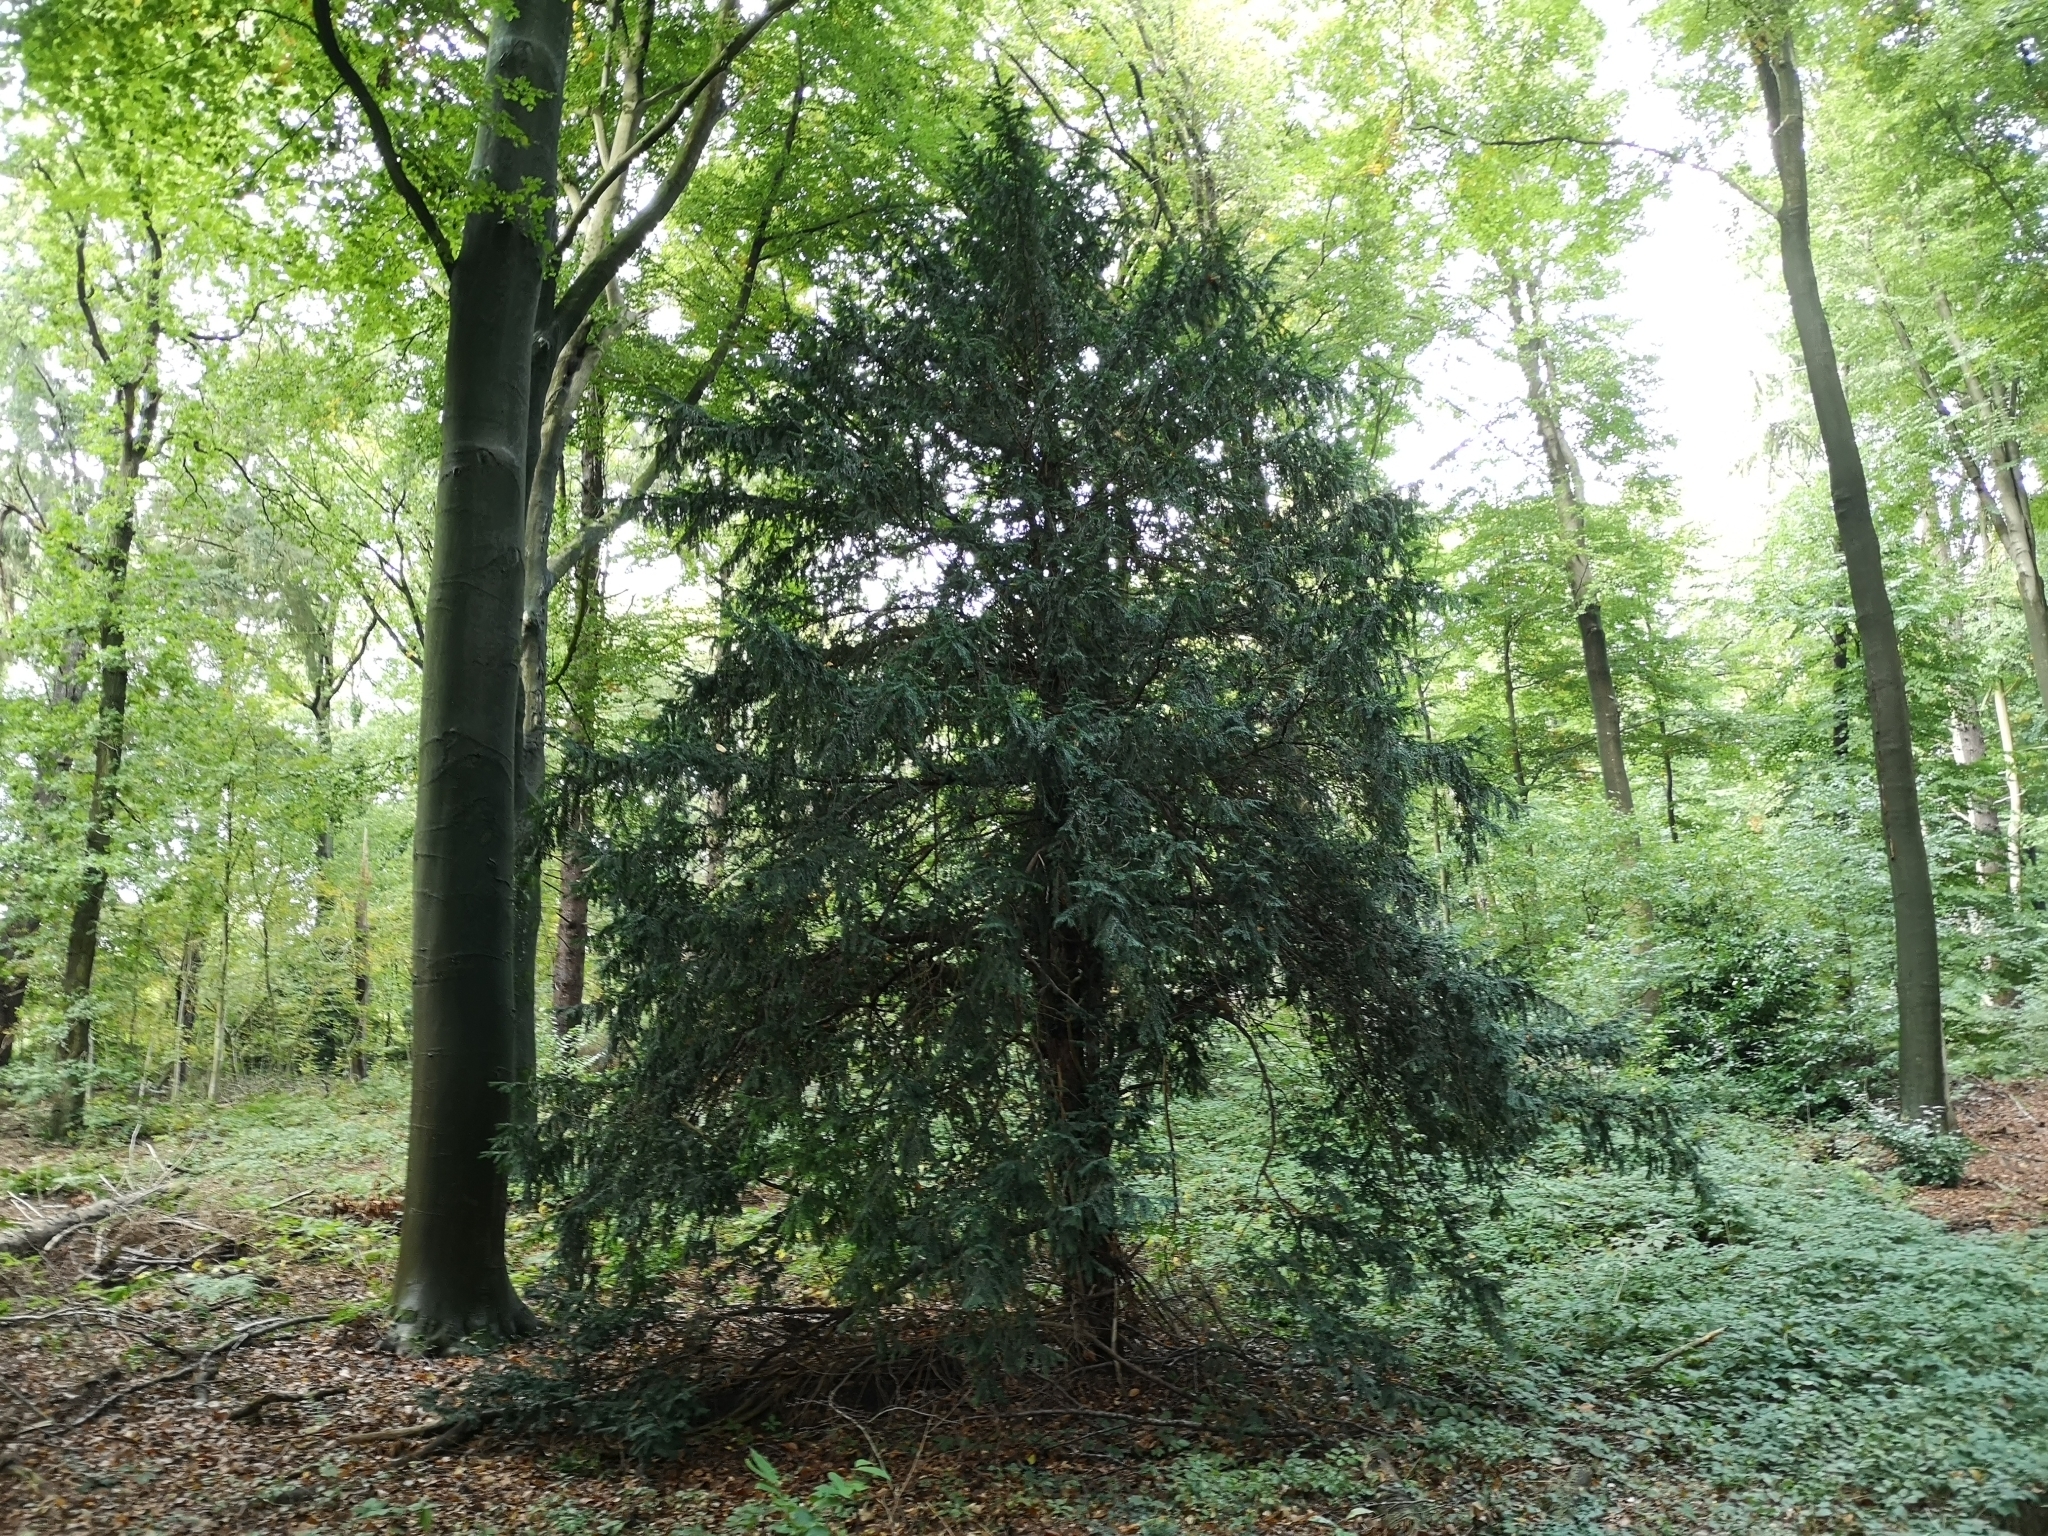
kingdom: Plantae
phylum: Tracheophyta
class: Pinopsida
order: Pinales
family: Taxaceae
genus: Taxus
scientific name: Taxus baccata
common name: Yew
